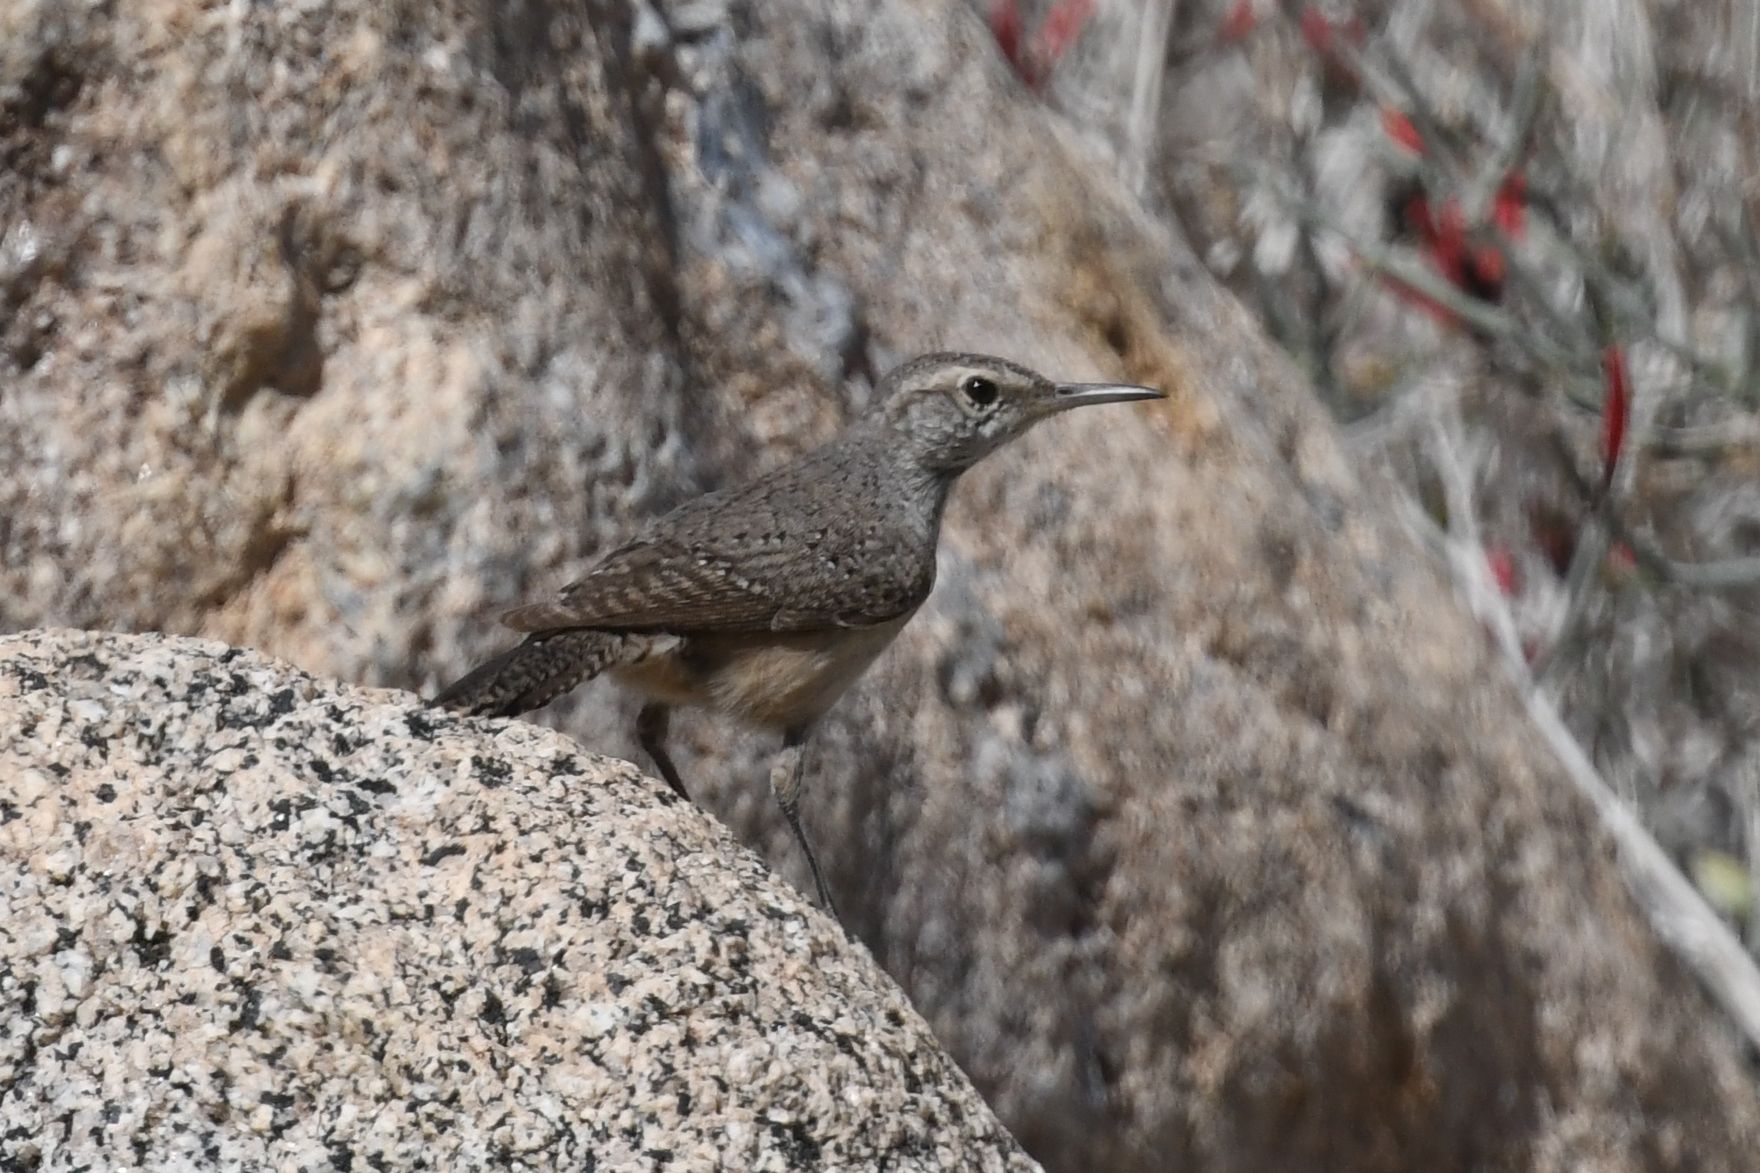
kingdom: Animalia
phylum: Chordata
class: Aves
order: Passeriformes
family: Troglodytidae
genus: Salpinctes
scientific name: Salpinctes obsoletus
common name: Rock wren
